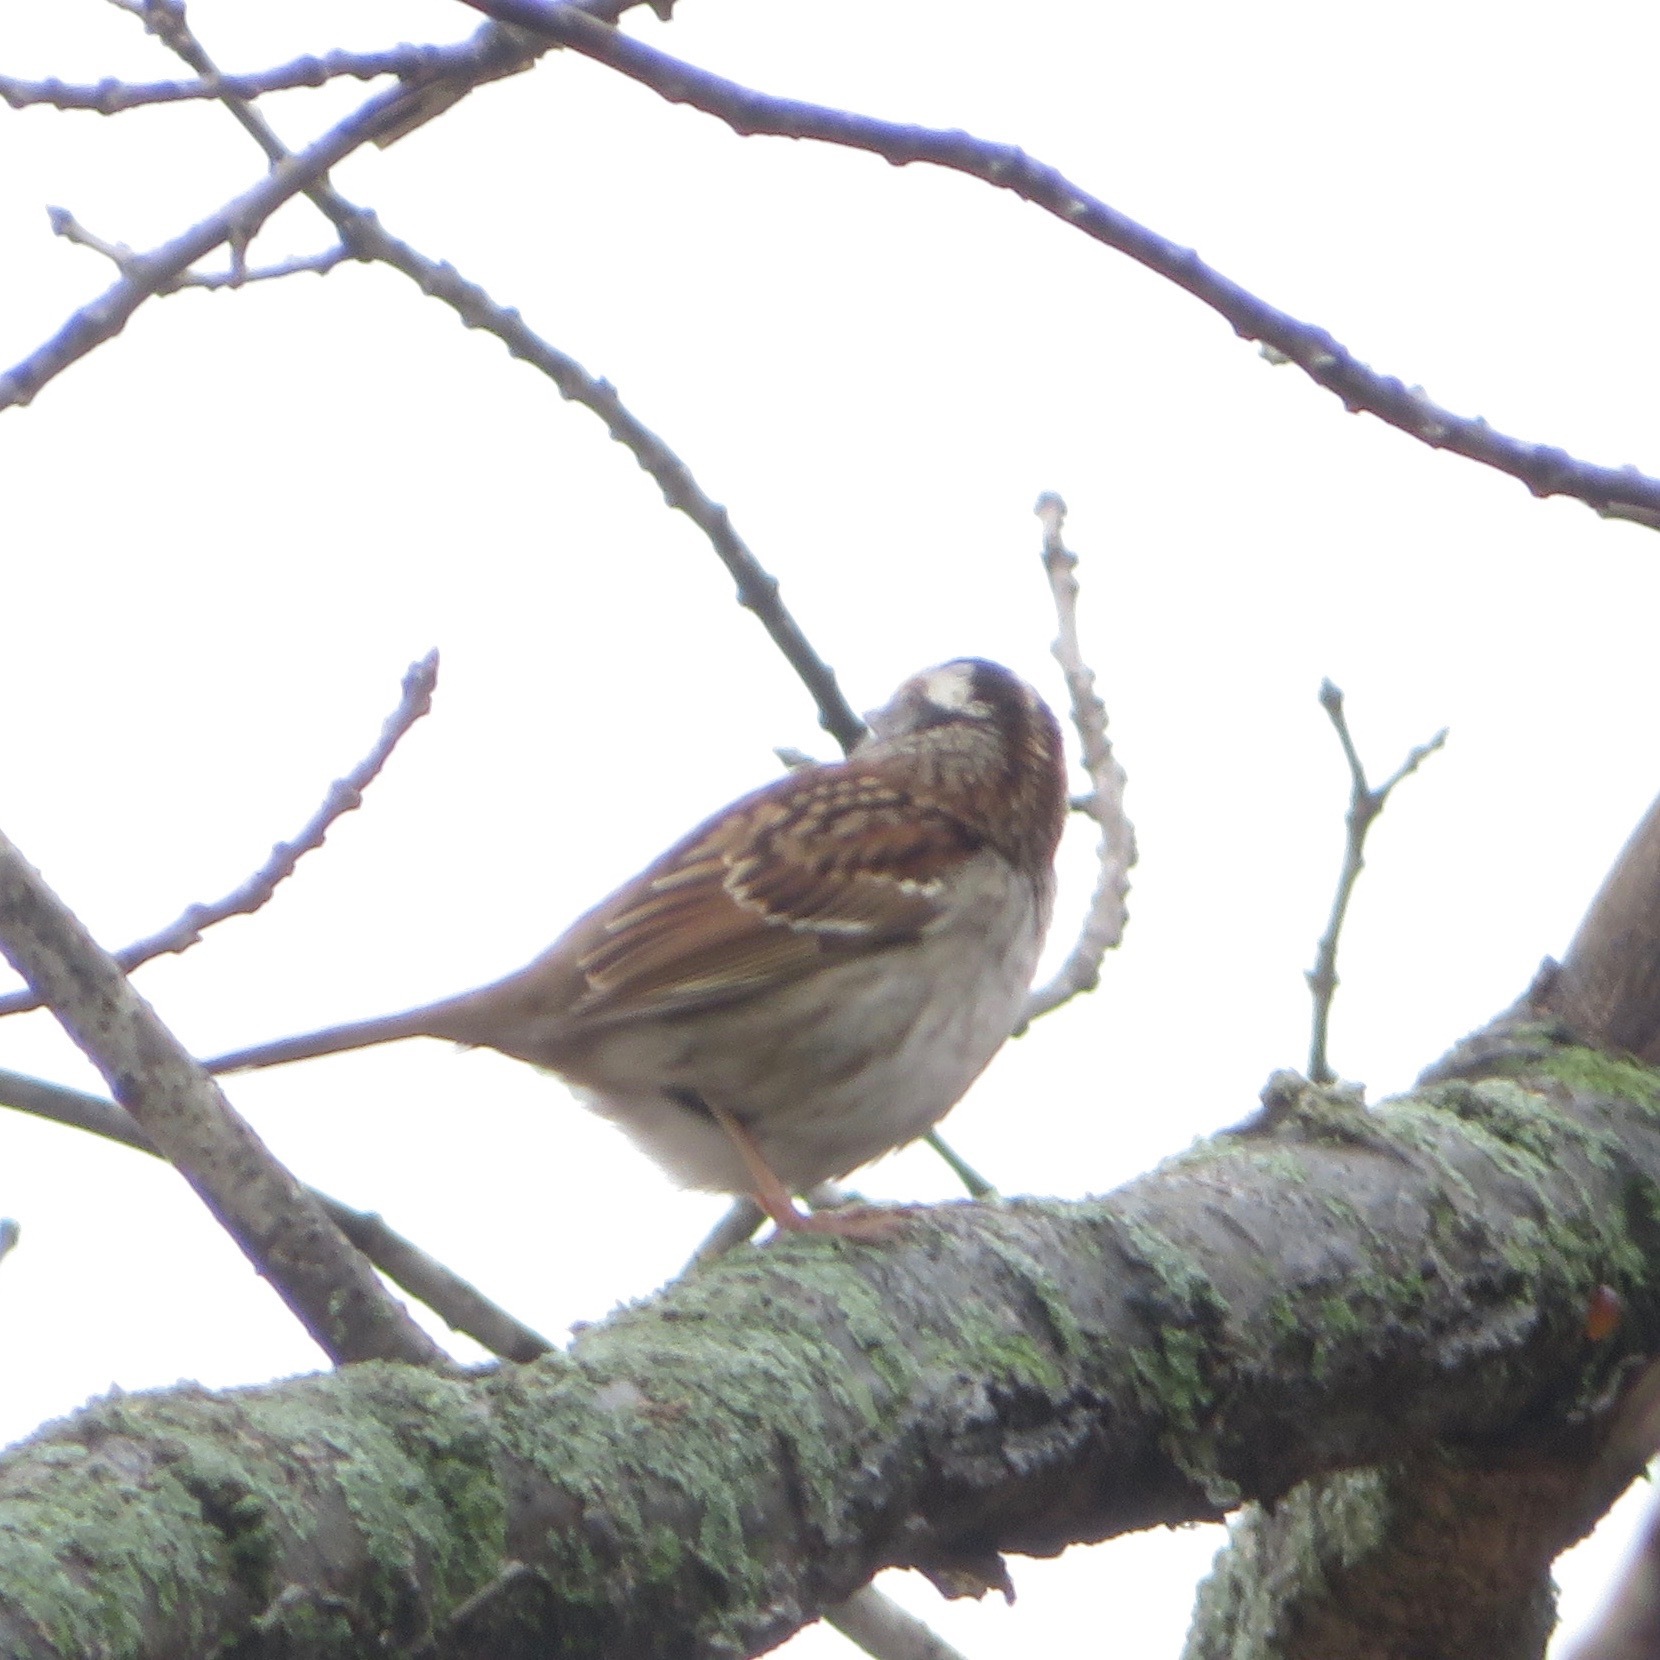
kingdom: Animalia
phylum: Chordata
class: Aves
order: Passeriformes
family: Passerellidae
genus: Zonotrichia
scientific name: Zonotrichia albicollis
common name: White-throated sparrow
